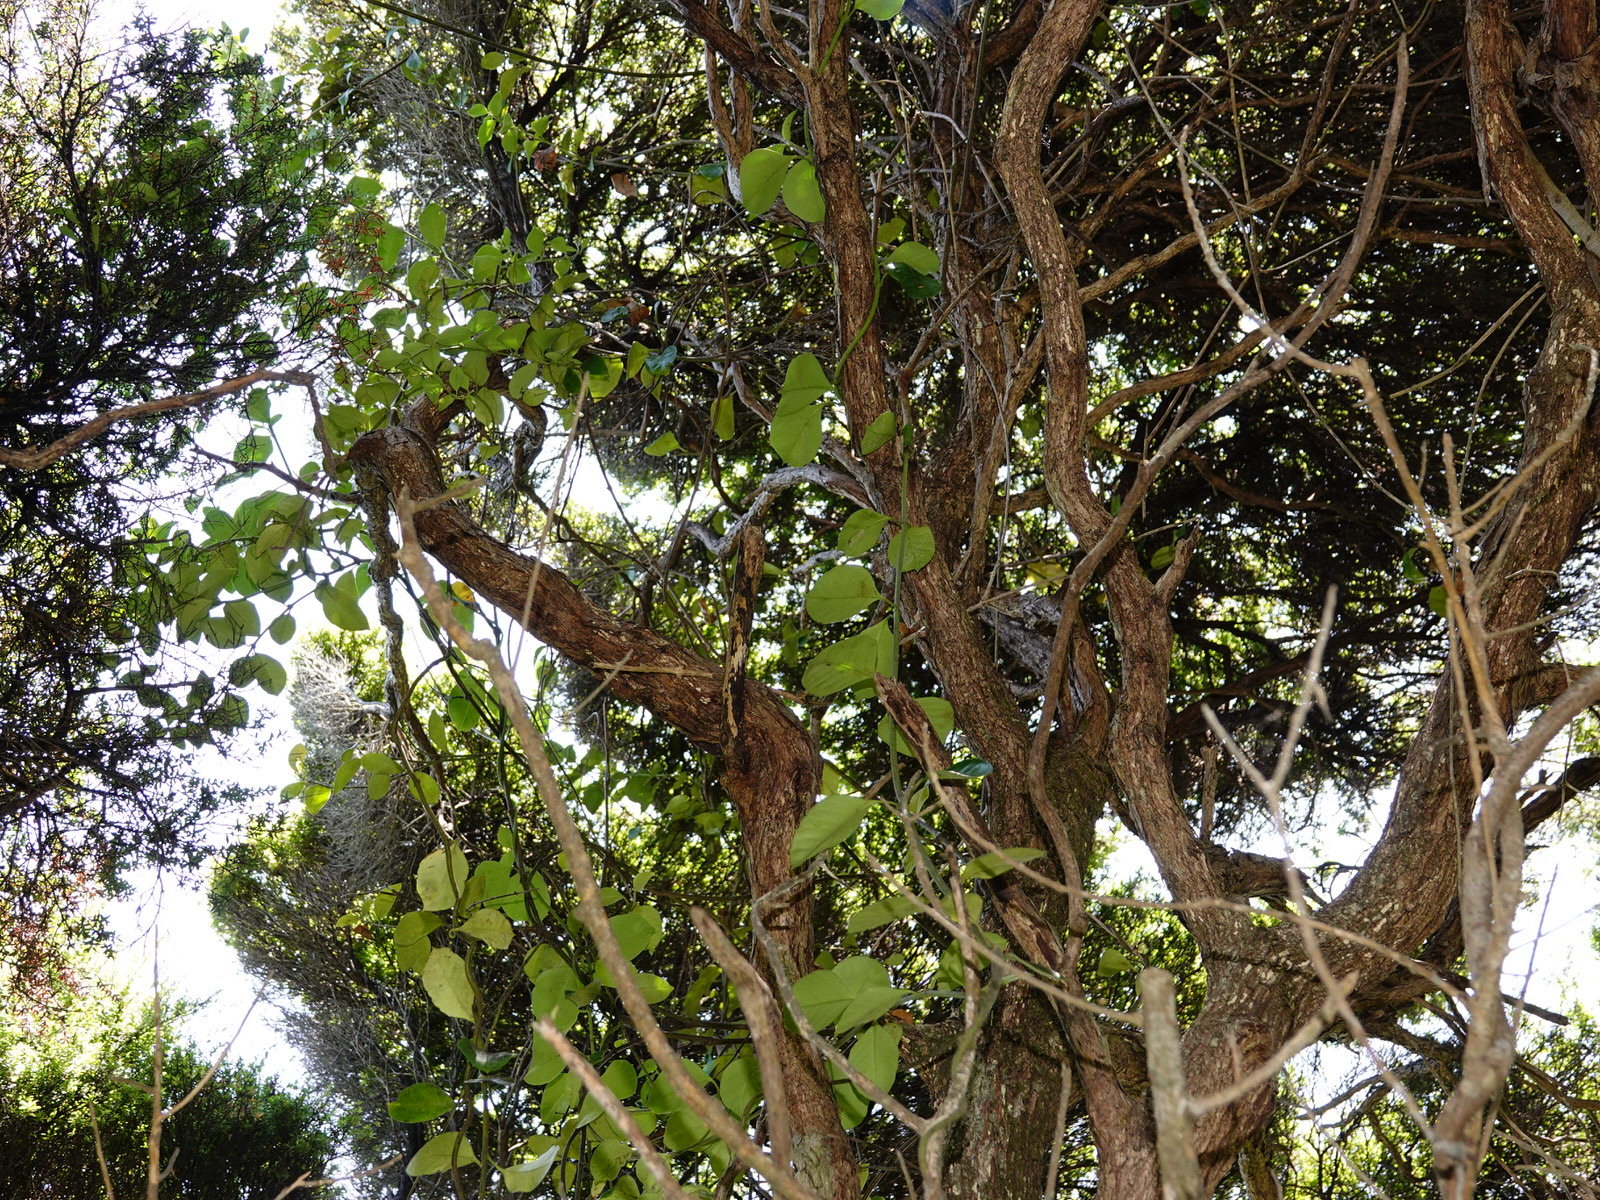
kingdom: Plantae
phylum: Tracheophyta
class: Magnoliopsida
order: Gentianales
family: Apocynaceae
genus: Parsonsia
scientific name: Parsonsia heterophylla
